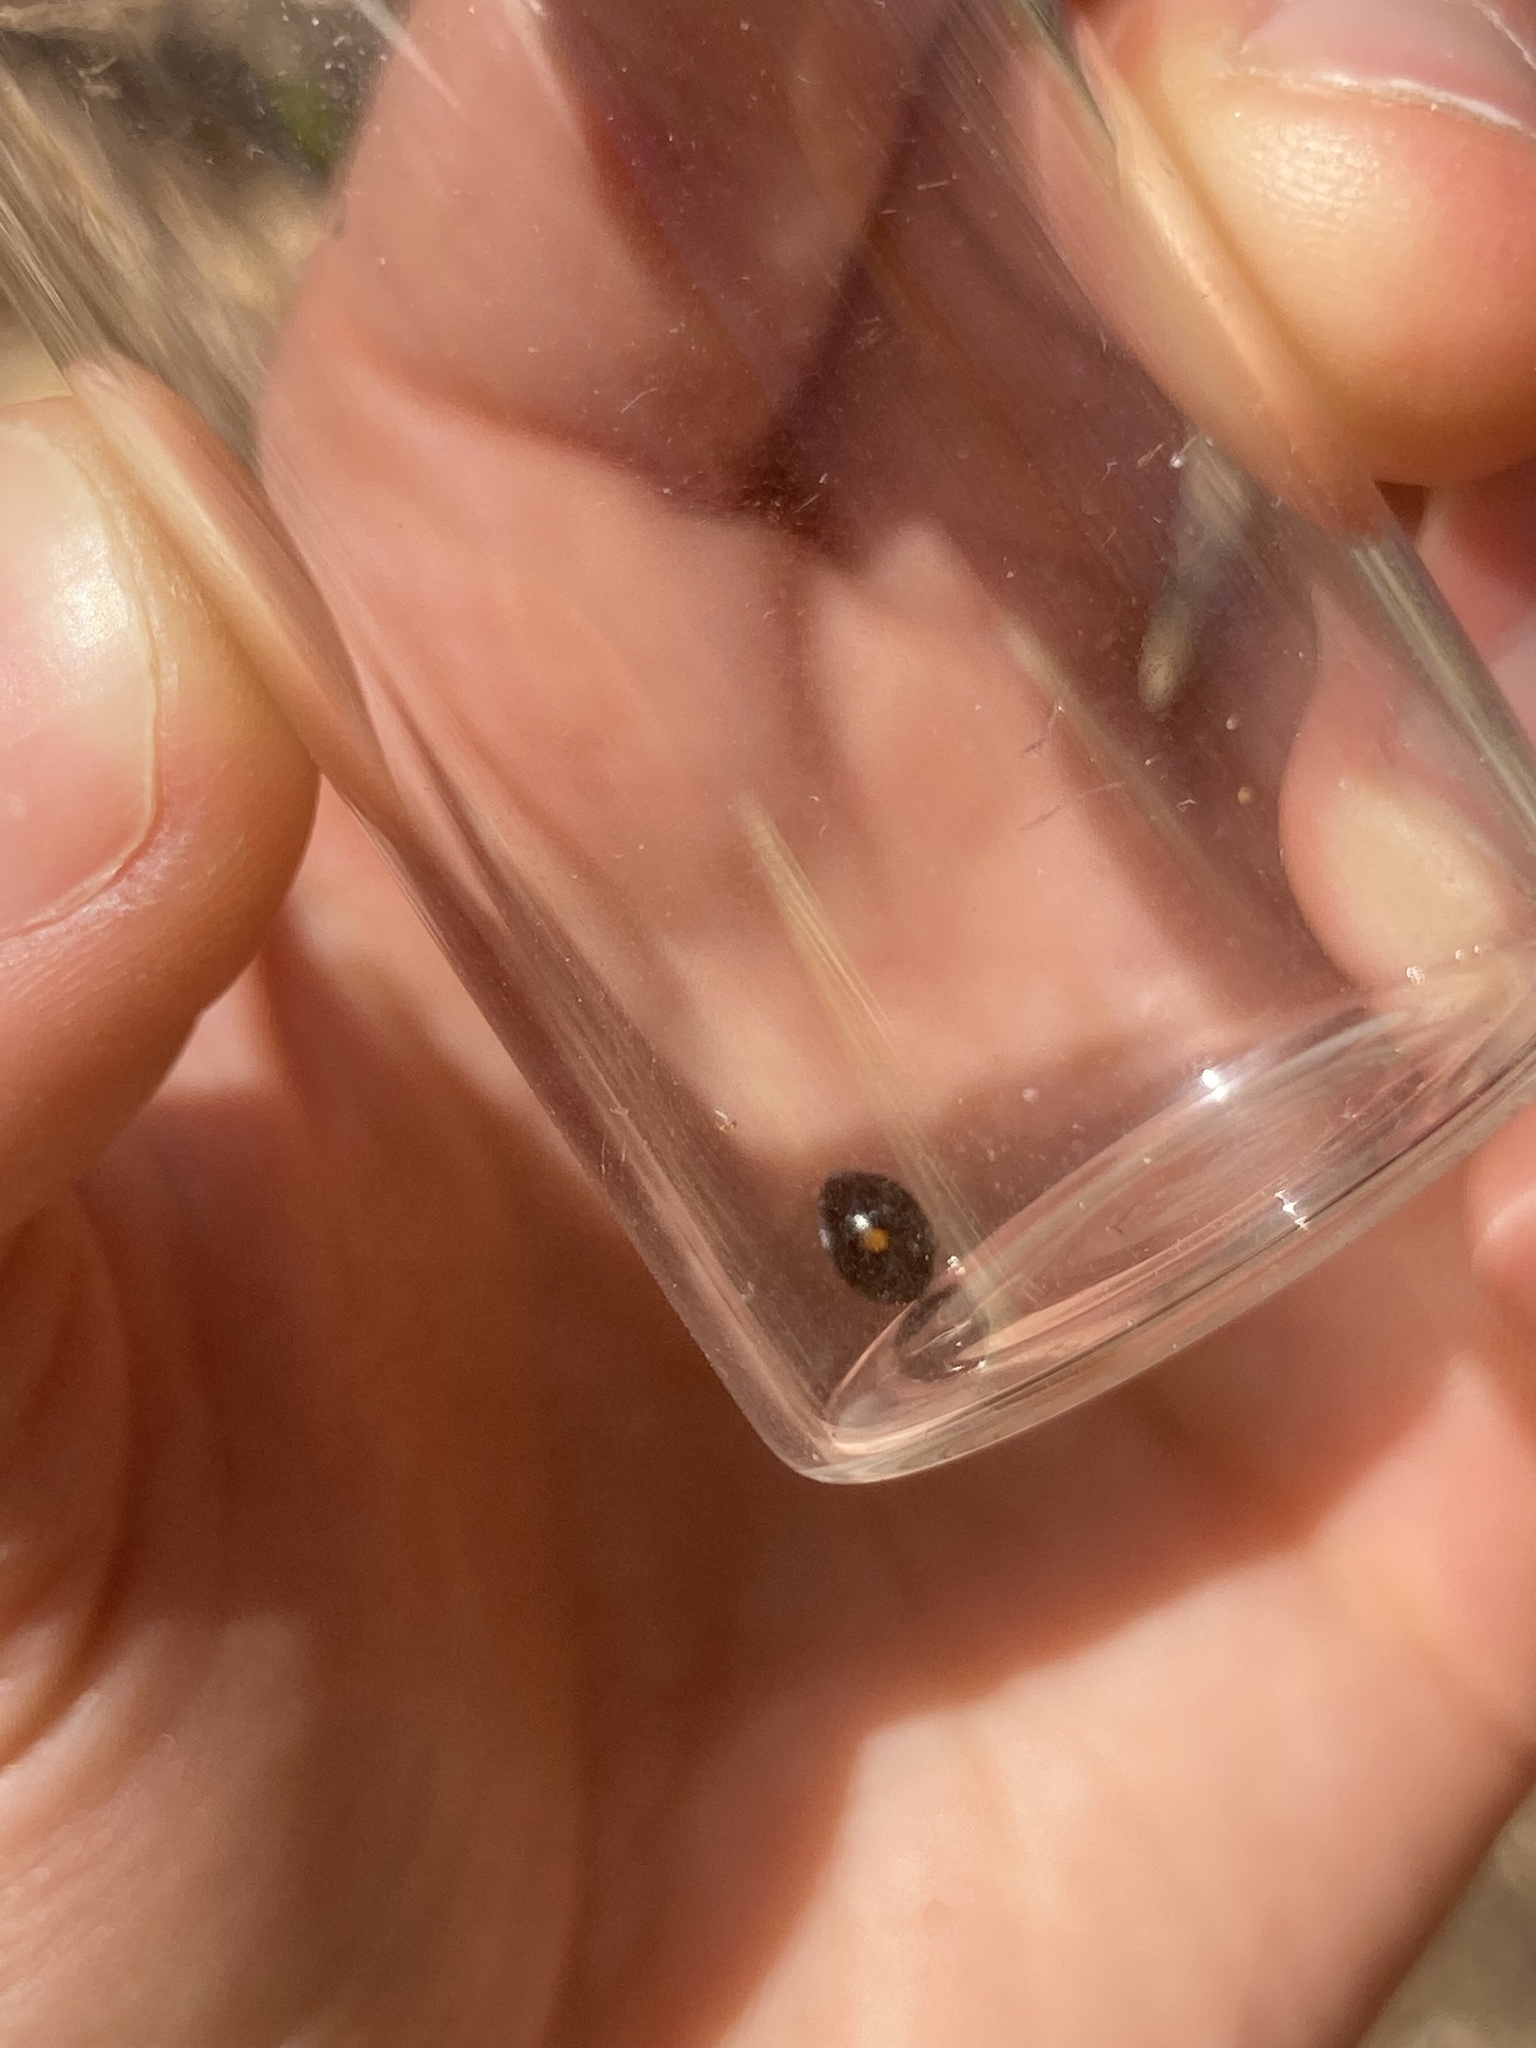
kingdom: Animalia
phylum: Arthropoda
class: Insecta
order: Coleoptera
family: Coccinellidae
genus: Chilocorus
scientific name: Chilocorus stigma
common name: Twicestabbed lady beetle
